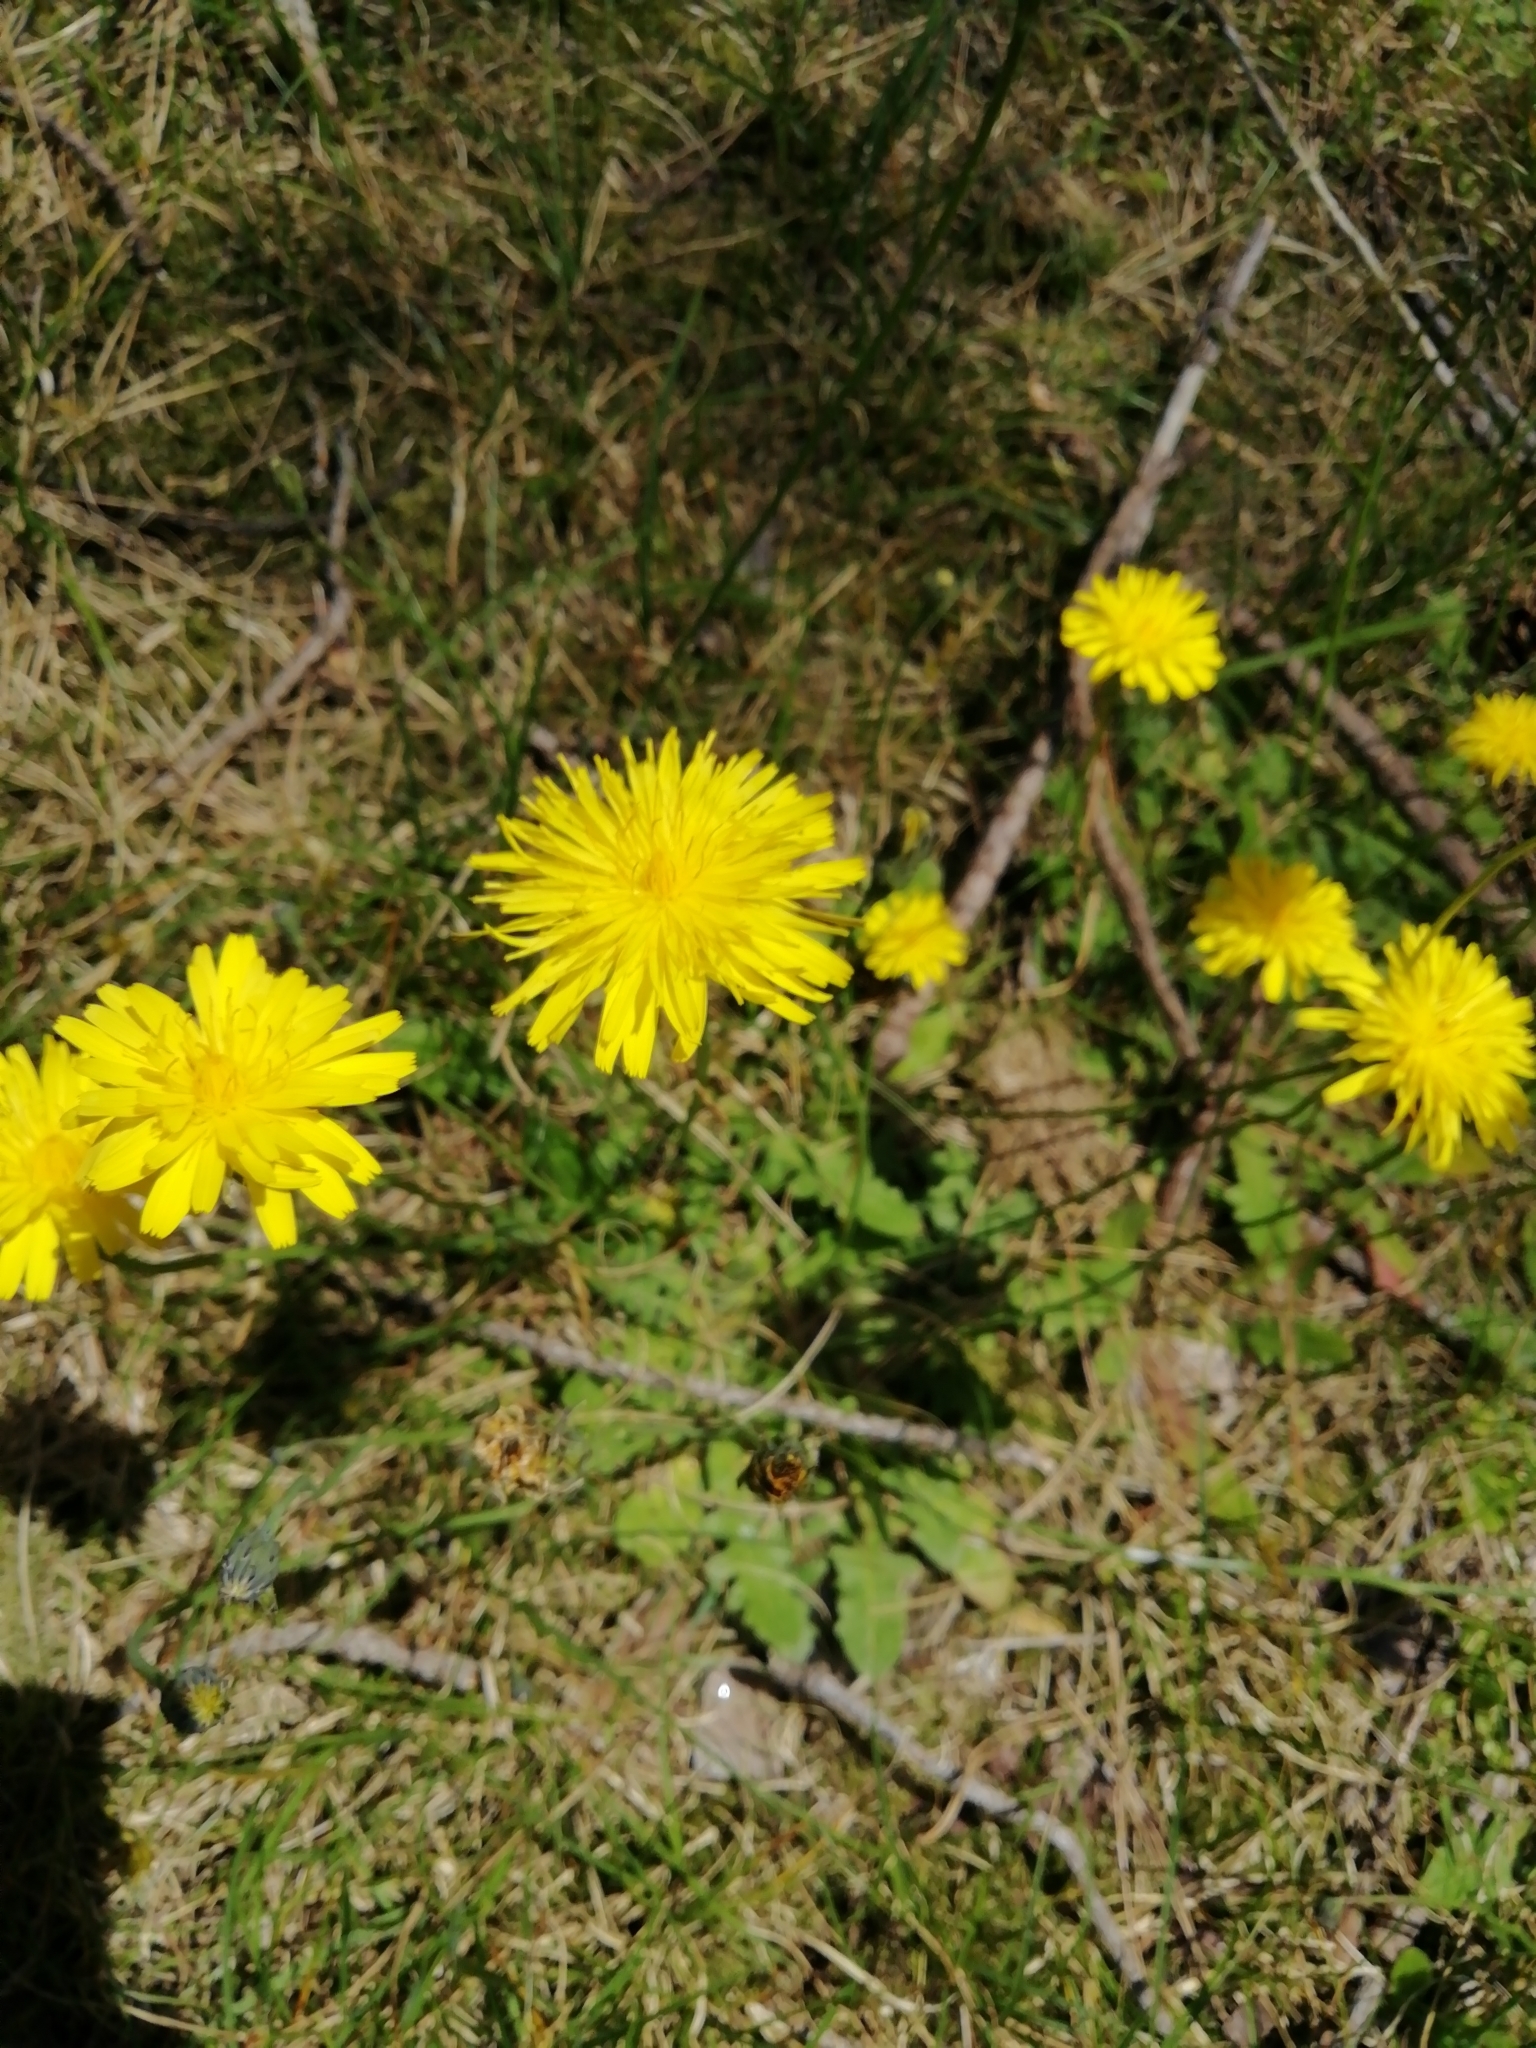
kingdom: Plantae
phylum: Tracheophyta
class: Magnoliopsida
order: Asterales
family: Asteraceae
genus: Hypochaeris
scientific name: Hypochaeris radicata
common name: Flatweed
